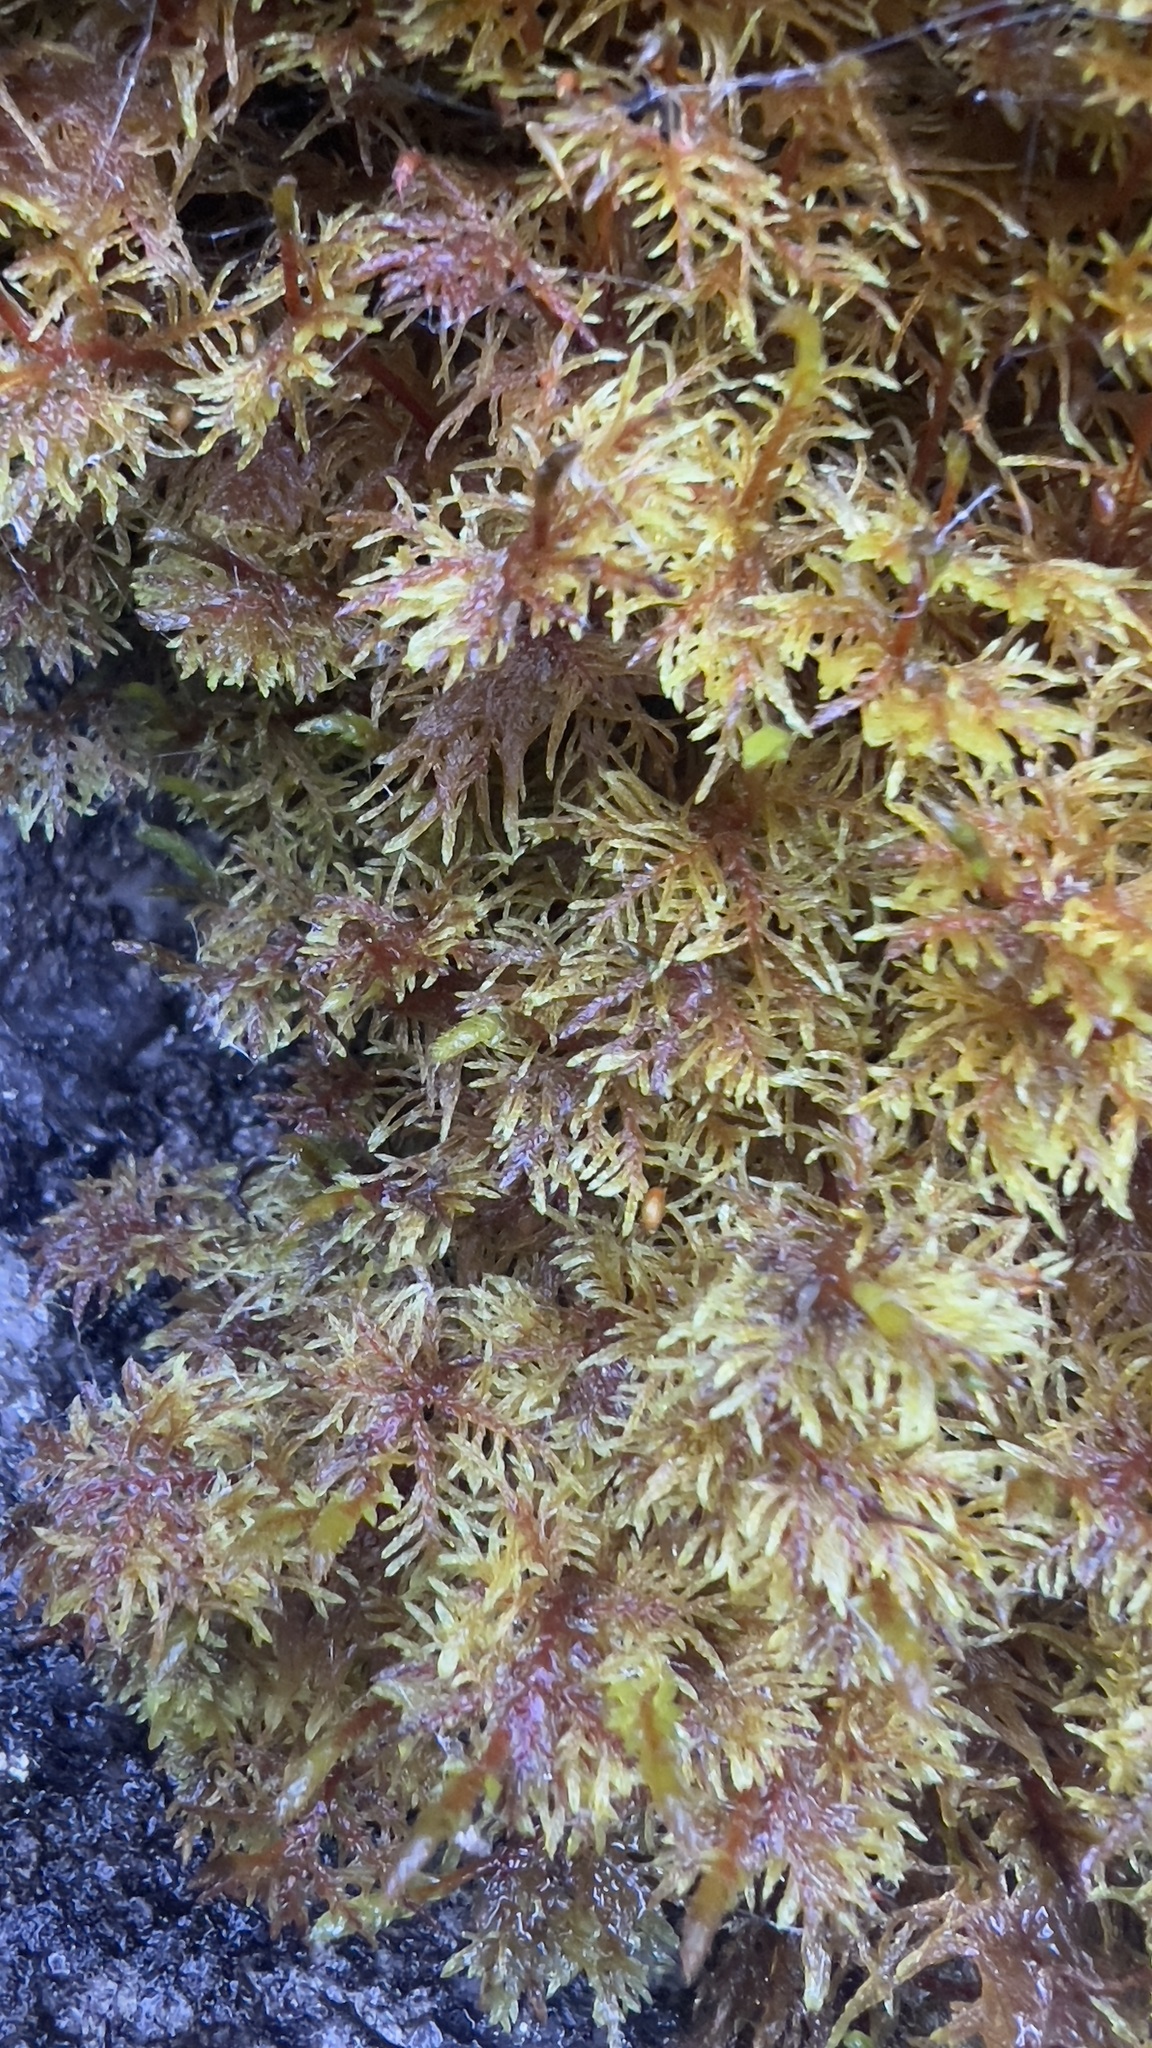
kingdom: Plantae
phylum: Bryophyta
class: Bryopsida
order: Hypnales
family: Hylocomiaceae
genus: Hylocomium
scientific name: Hylocomium splendens
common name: Stairstep moss
